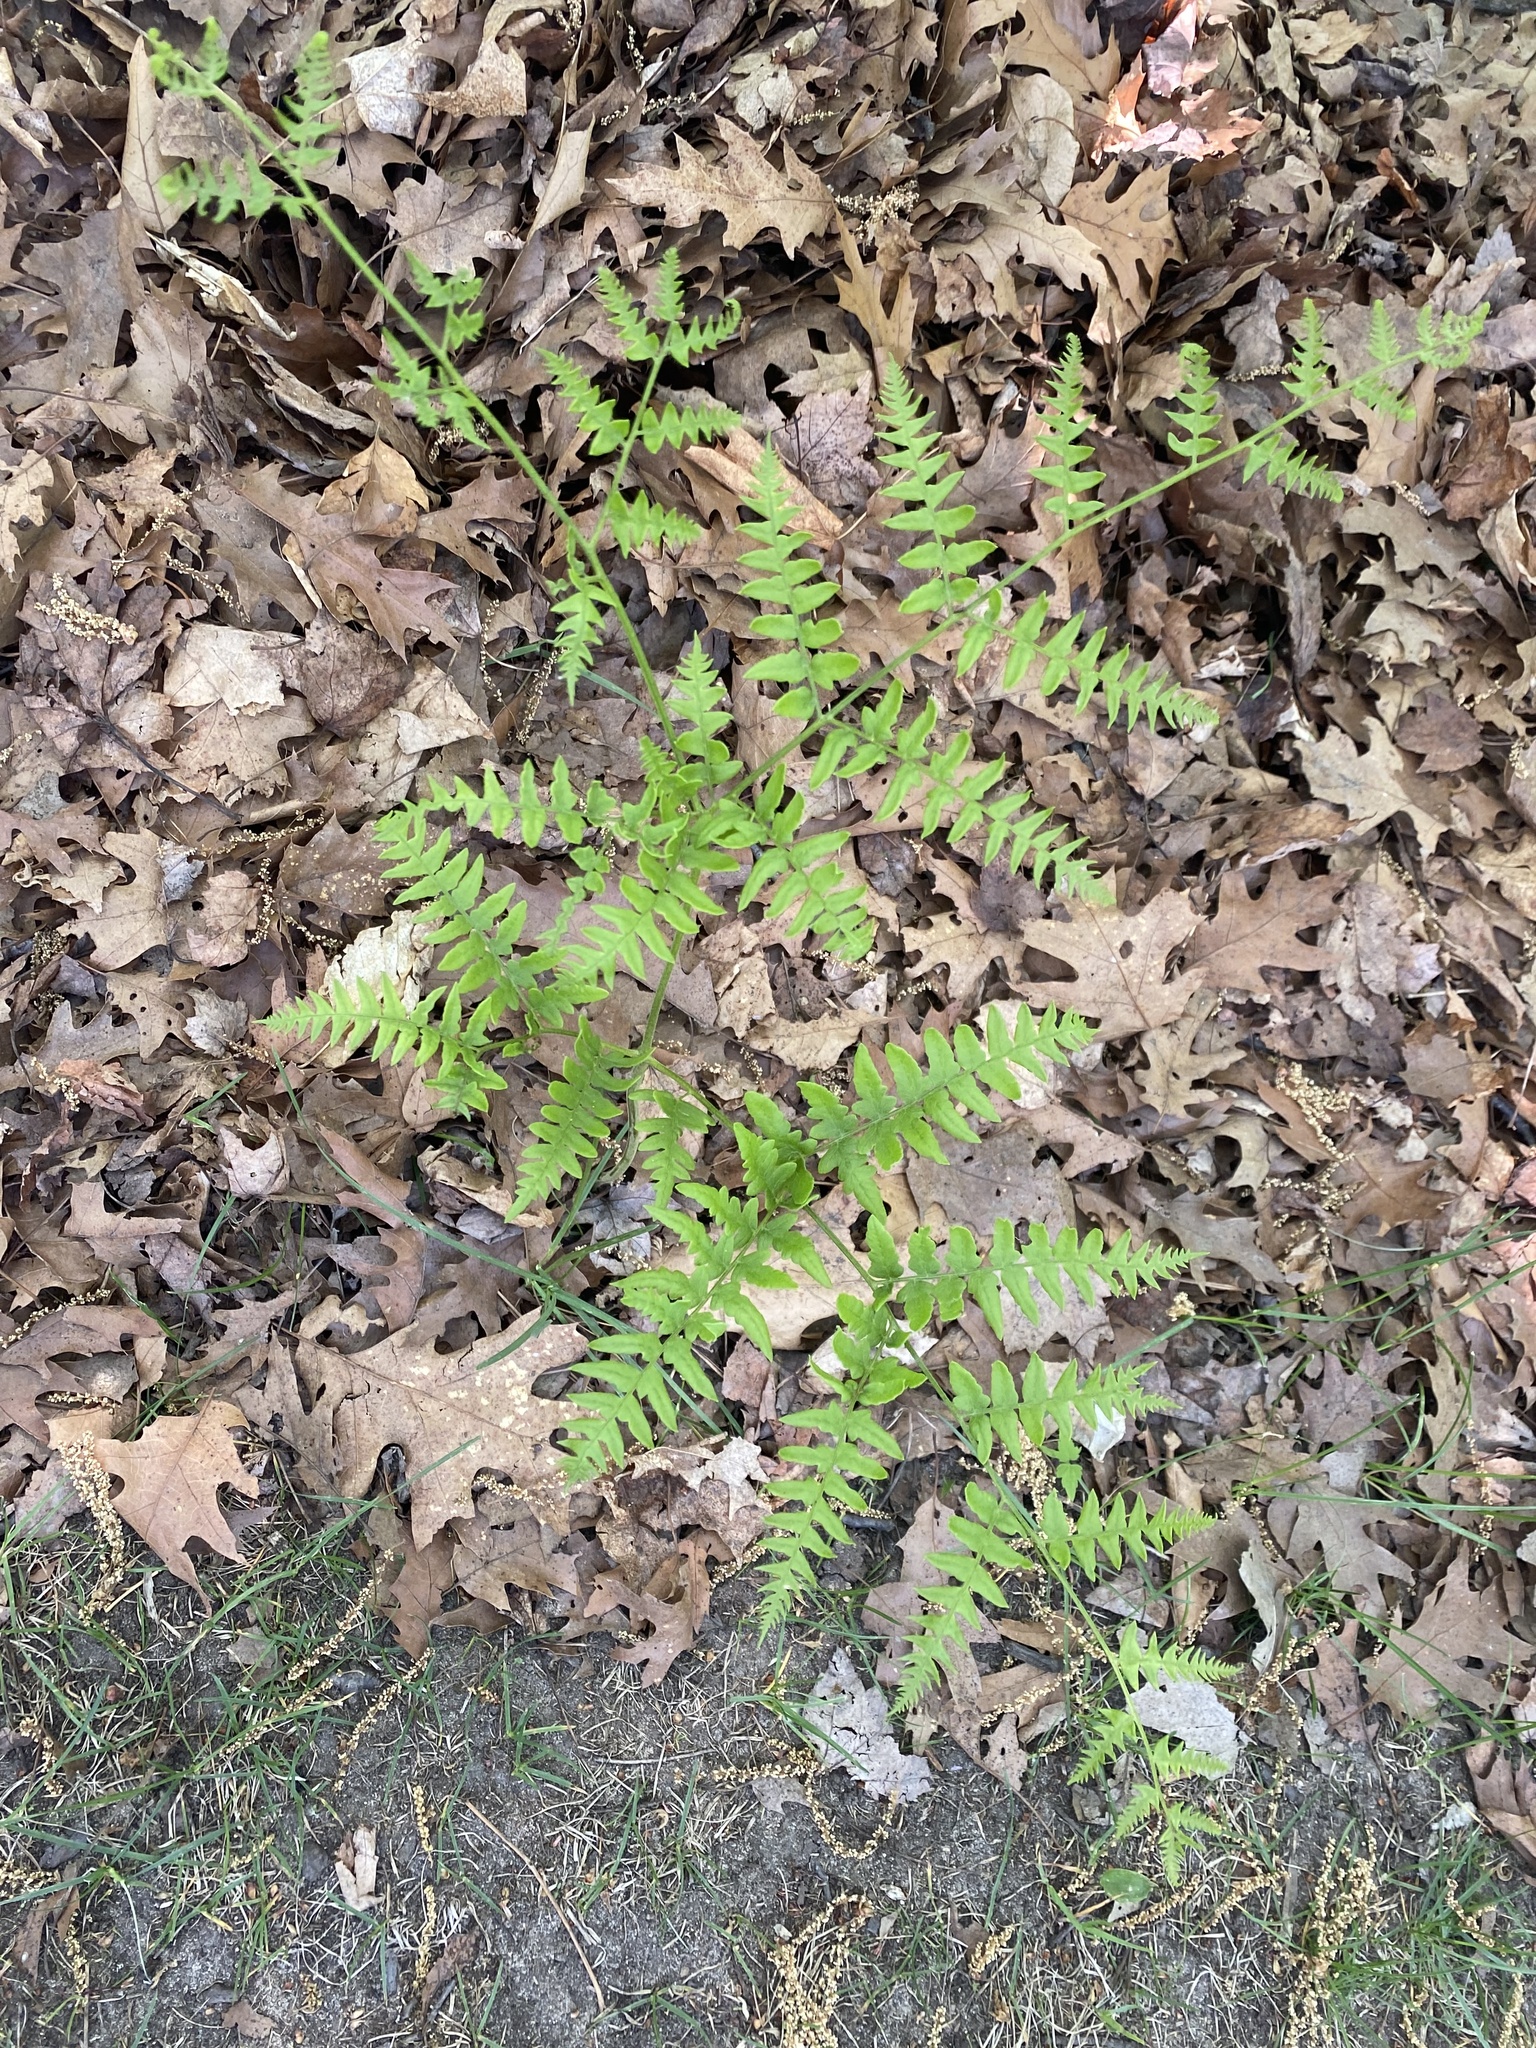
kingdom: Plantae
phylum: Tracheophyta
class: Polypodiopsida
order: Polypodiales
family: Dennstaedtiaceae
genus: Pteridium
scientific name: Pteridium aquilinum
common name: Bracken
